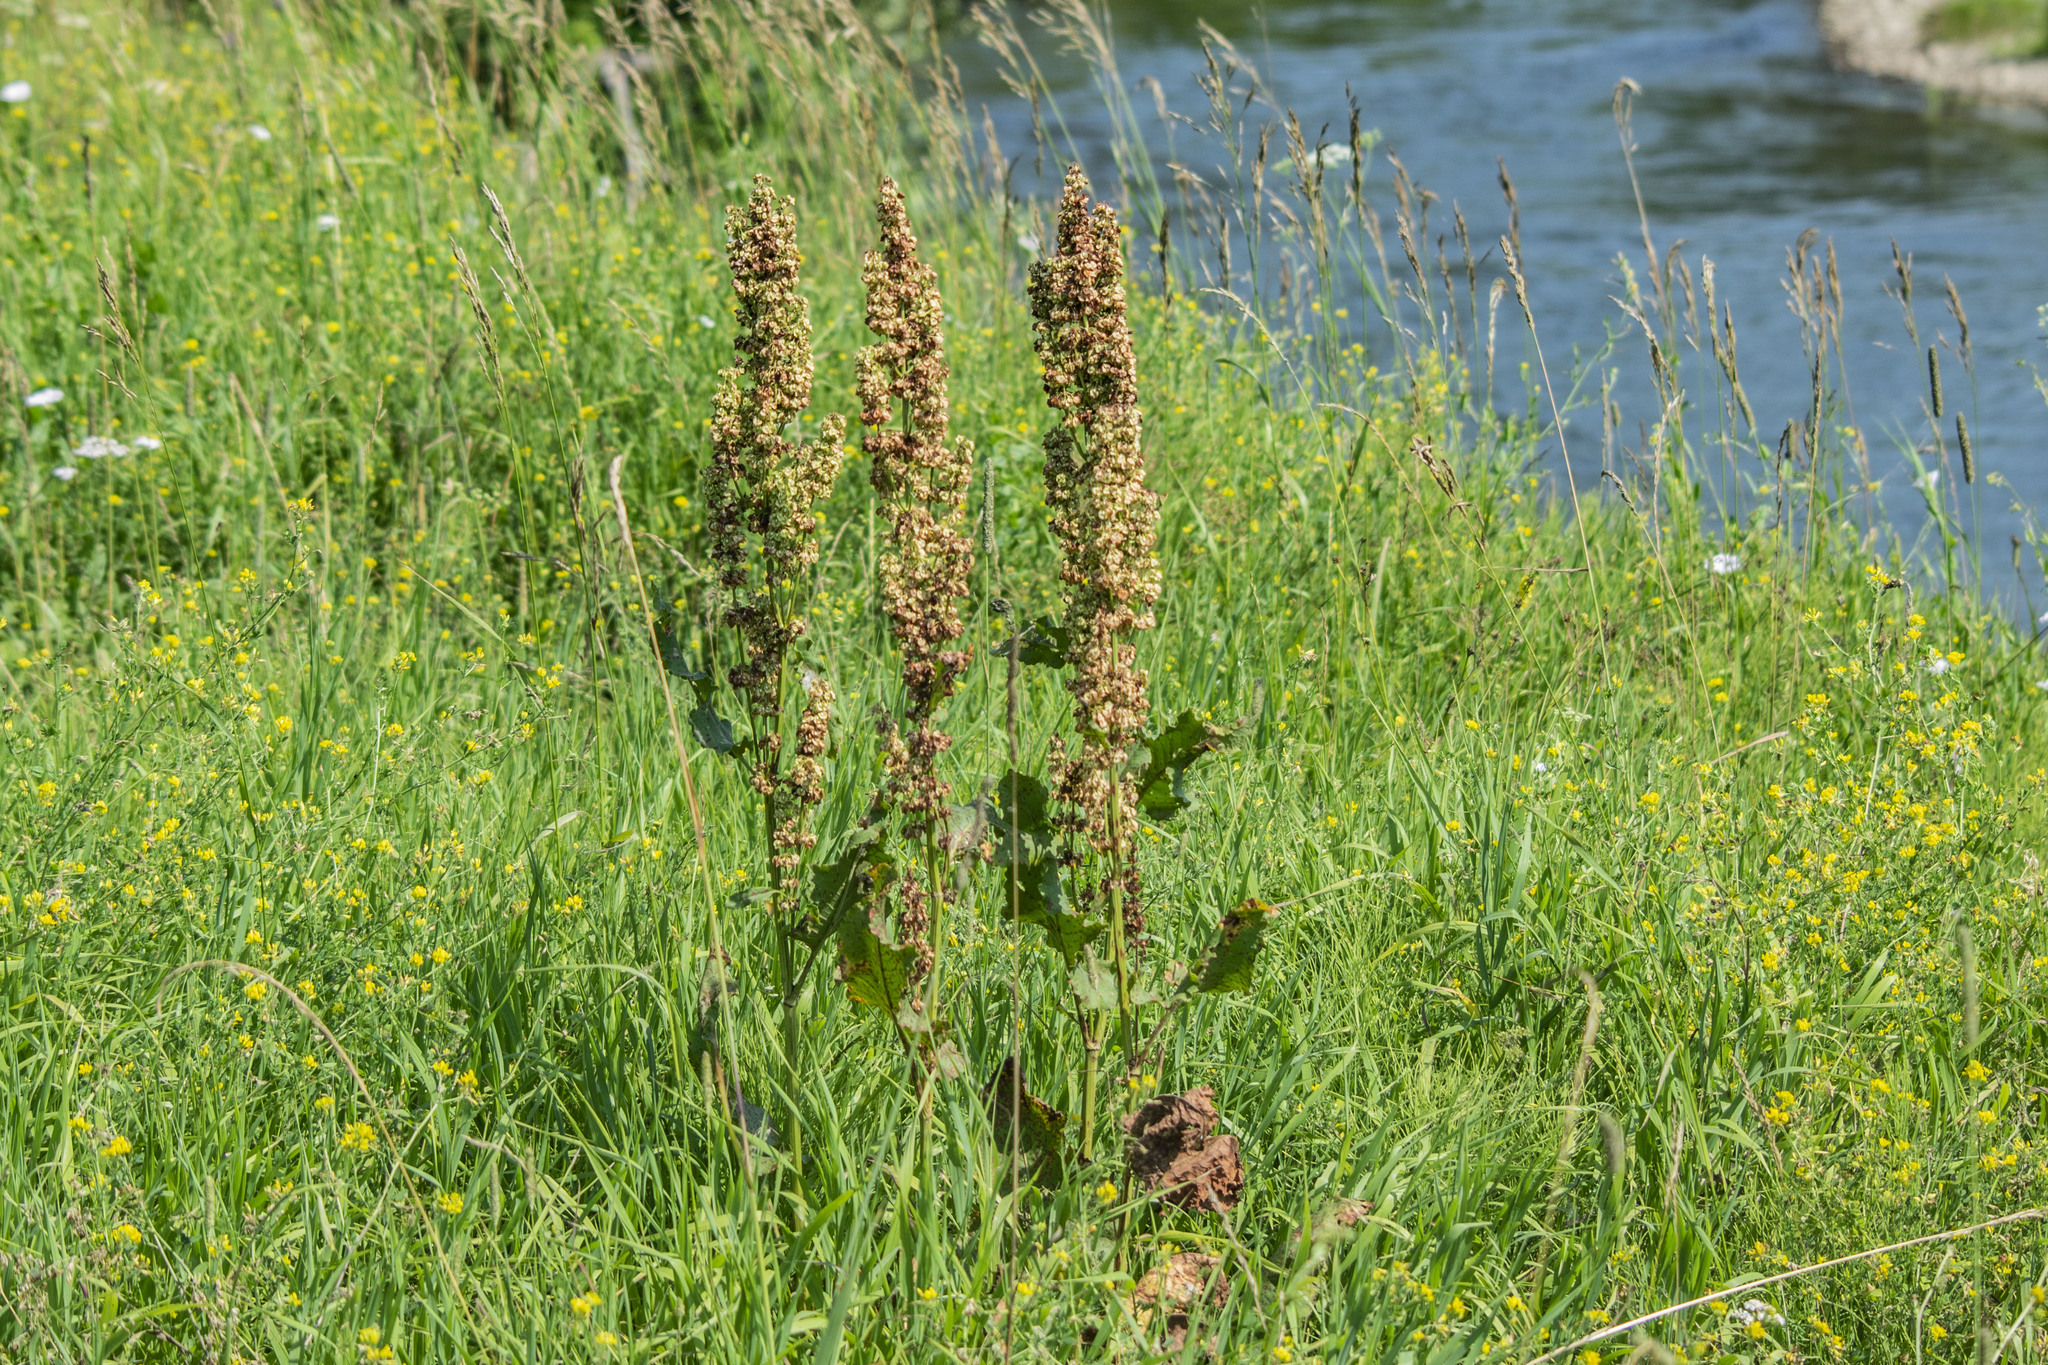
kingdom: Plantae
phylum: Tracheophyta
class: Magnoliopsida
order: Caryophyllales
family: Polygonaceae
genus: Rumex
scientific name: Rumex confertus
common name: Russian dock
